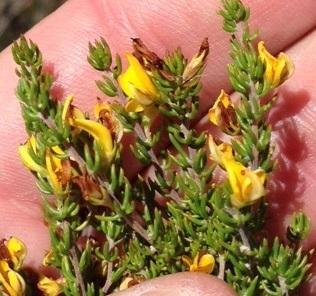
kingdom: Plantae
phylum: Tracheophyta
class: Magnoliopsida
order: Fabales
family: Fabaceae
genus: Aspalathus
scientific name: Aspalathus subtingens
